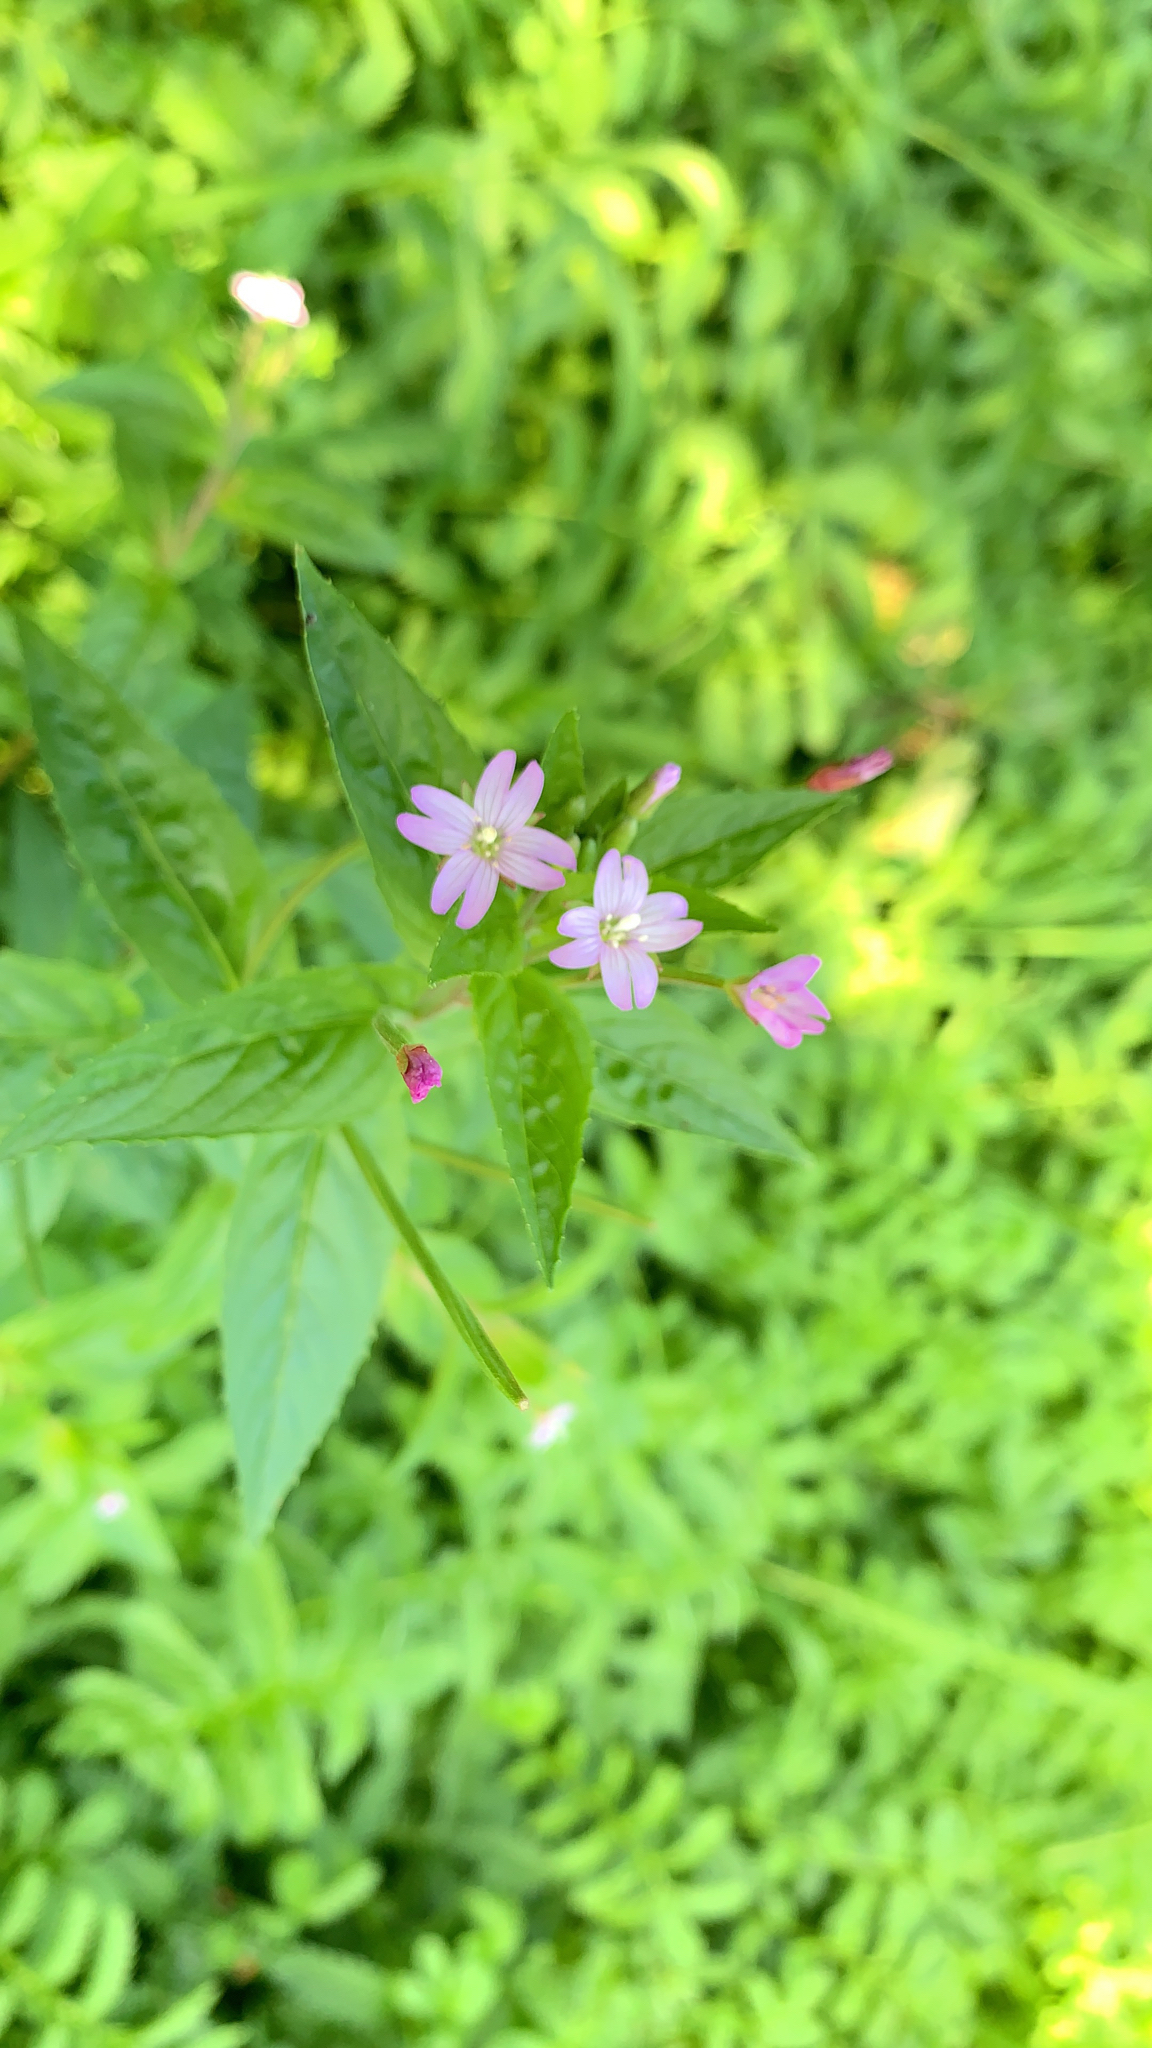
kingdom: Plantae
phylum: Tracheophyta
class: Magnoliopsida
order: Myrtales
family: Onagraceae
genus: Epilobium
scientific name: Epilobium ciliatum
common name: American willowherb
